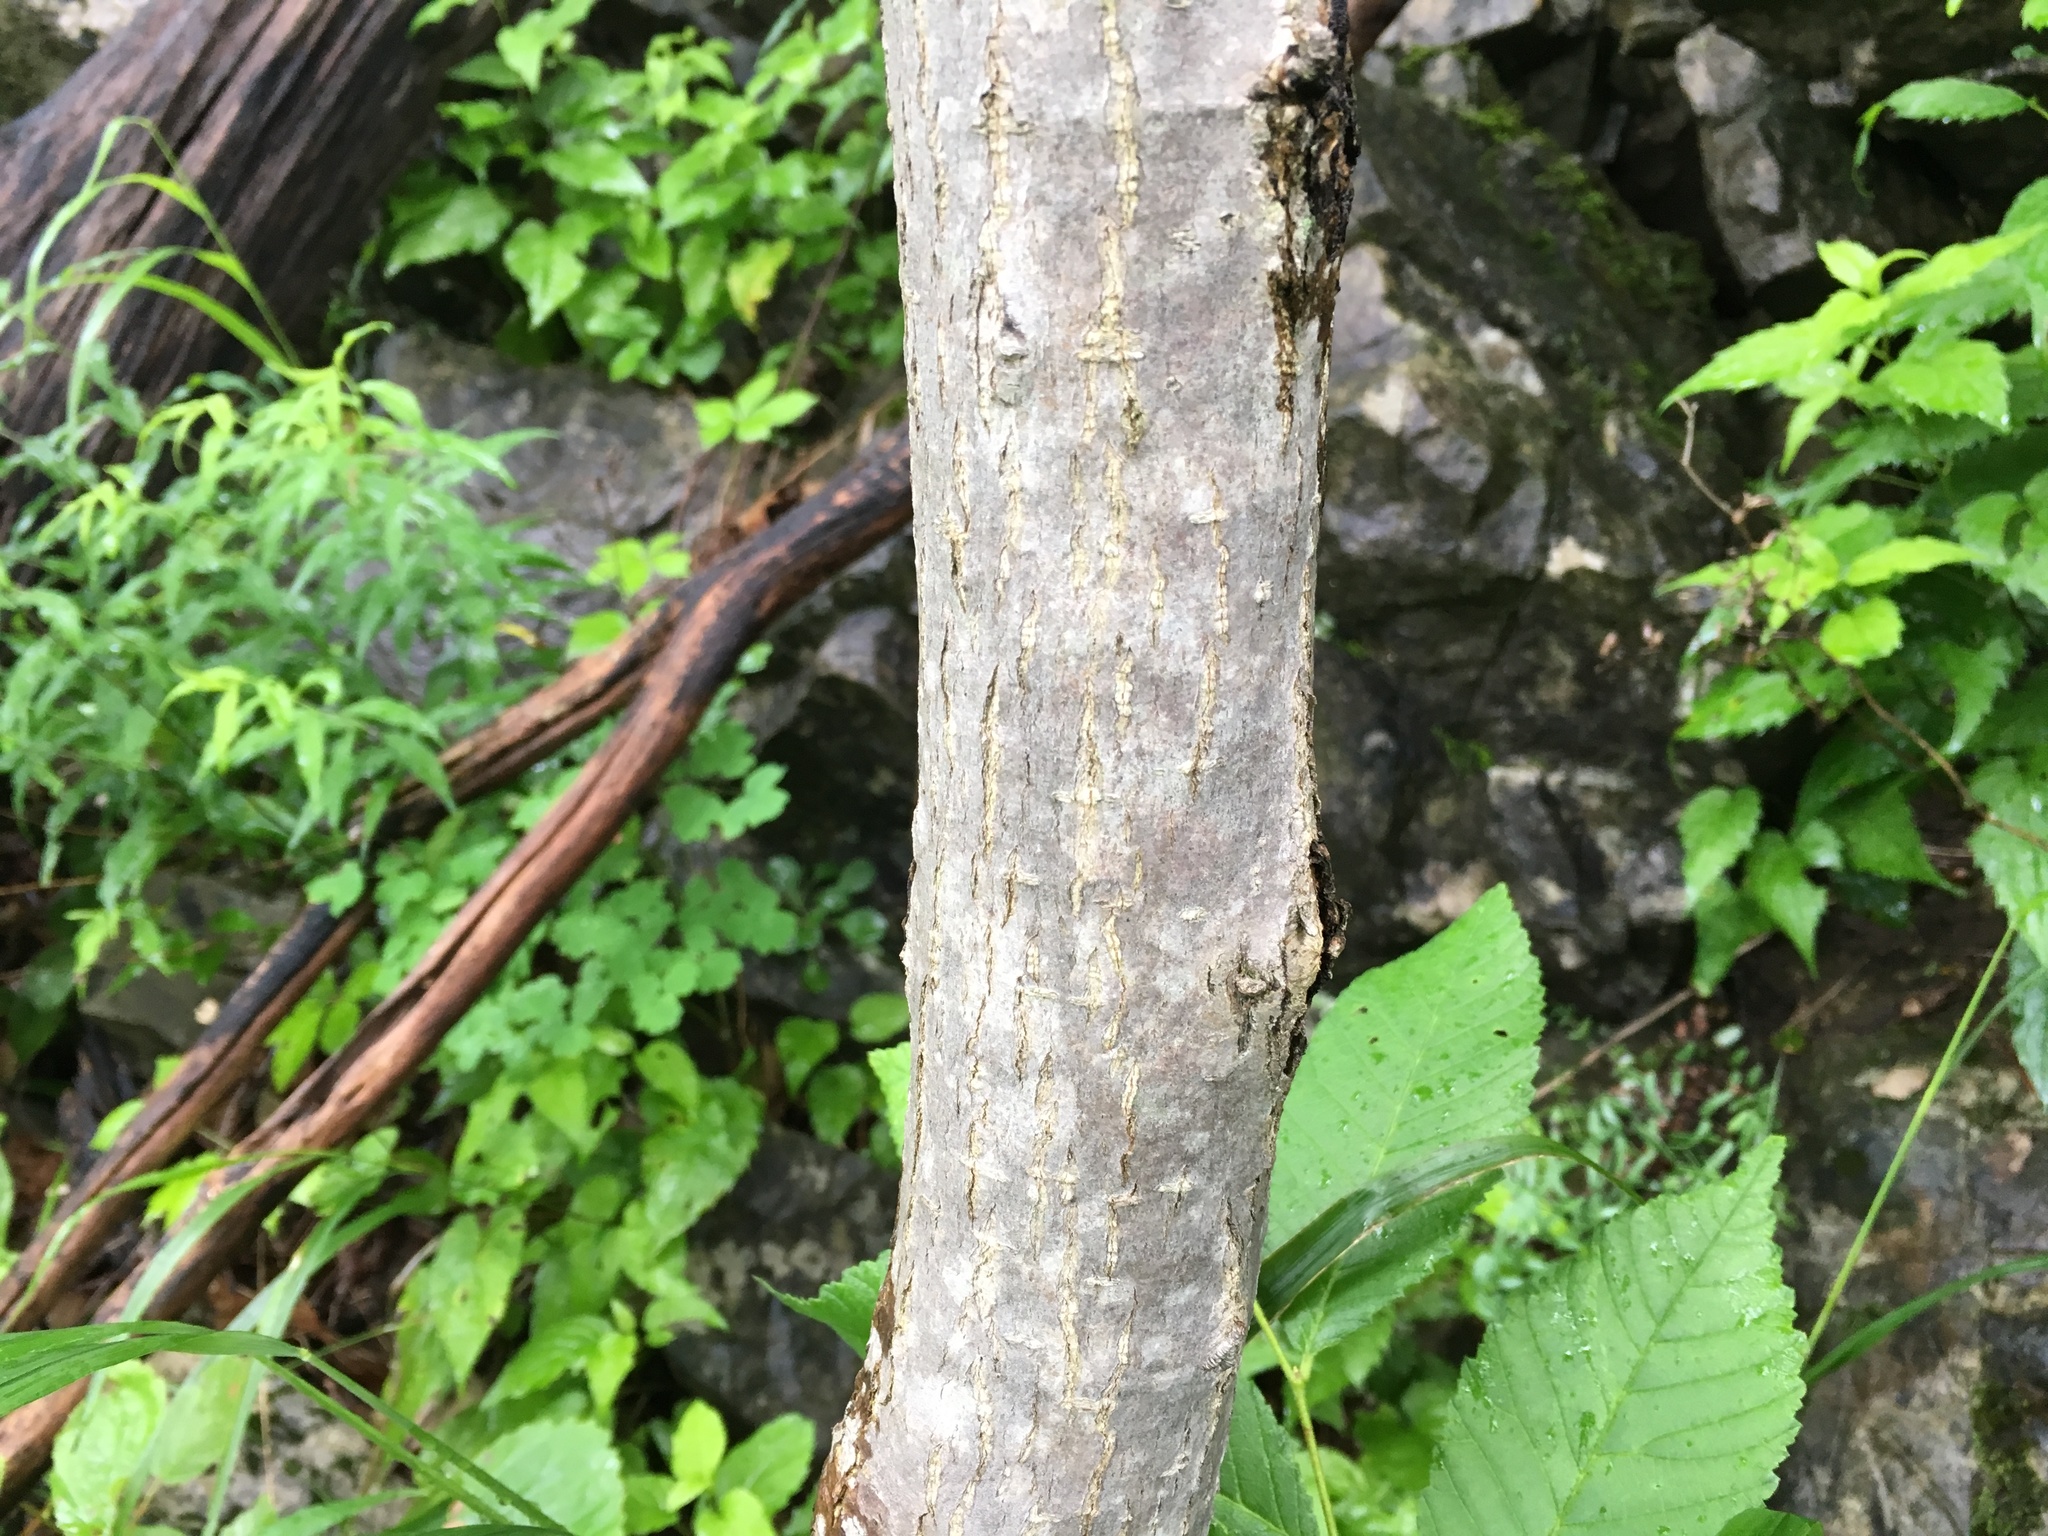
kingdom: Plantae
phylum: Tracheophyta
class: Magnoliopsida
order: Rosales
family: Moraceae
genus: Morus
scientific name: Morus rubra
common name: Red mulberry
